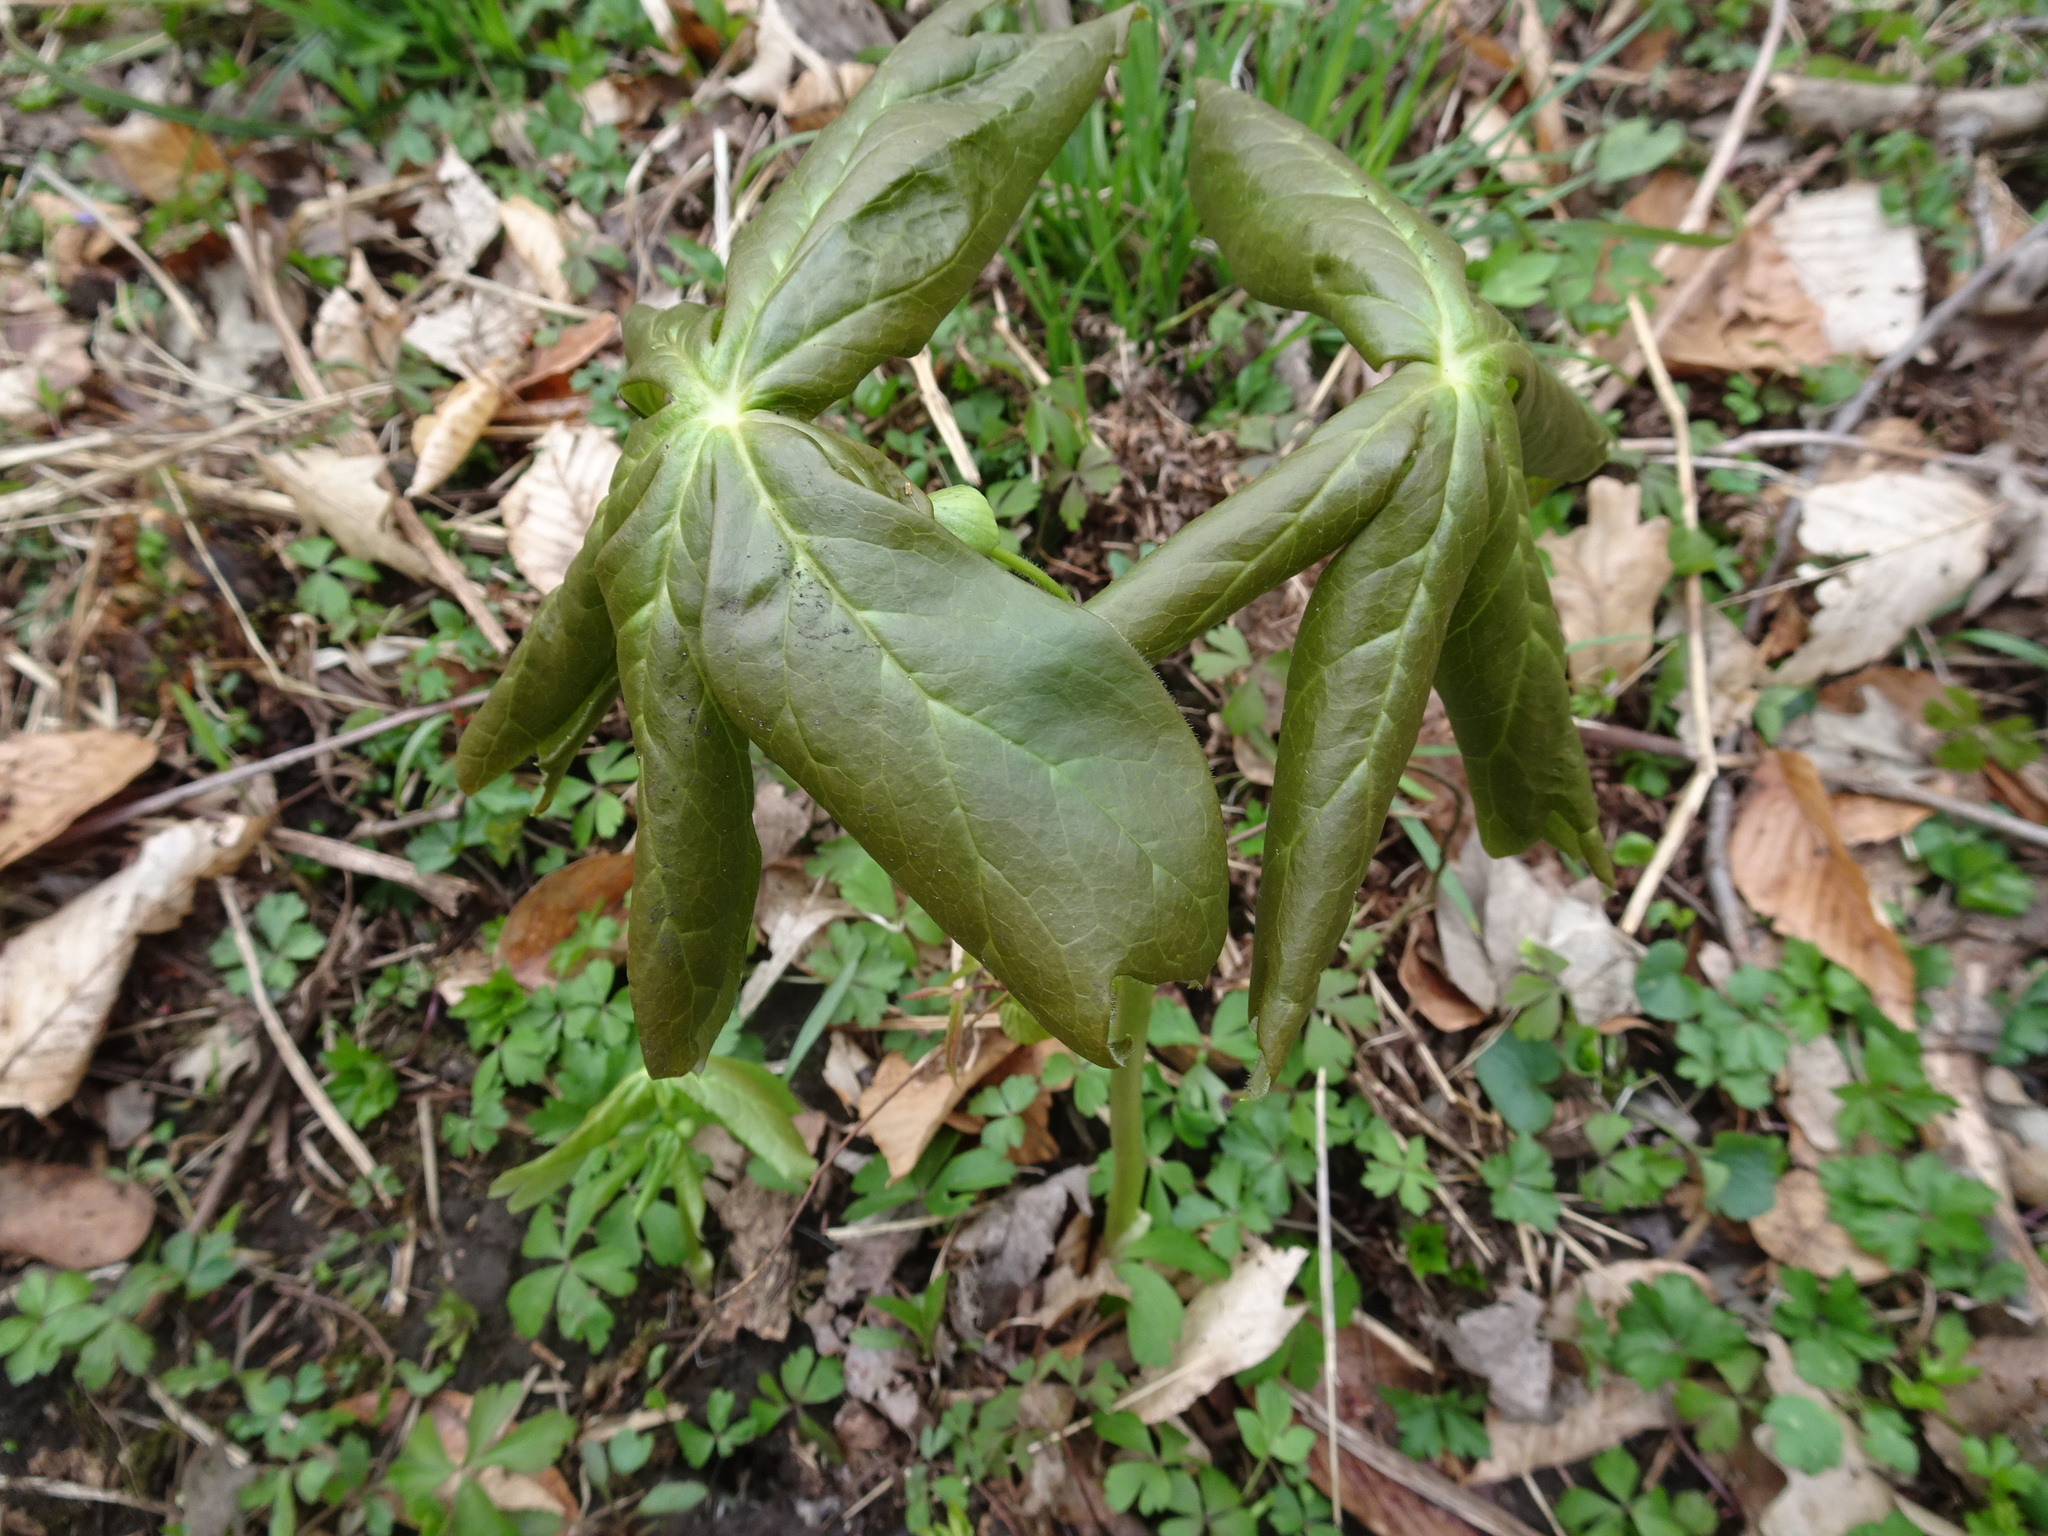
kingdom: Plantae
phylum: Tracheophyta
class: Magnoliopsida
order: Ranunculales
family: Berberidaceae
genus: Podophyllum
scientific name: Podophyllum peltatum
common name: Wild mandrake
